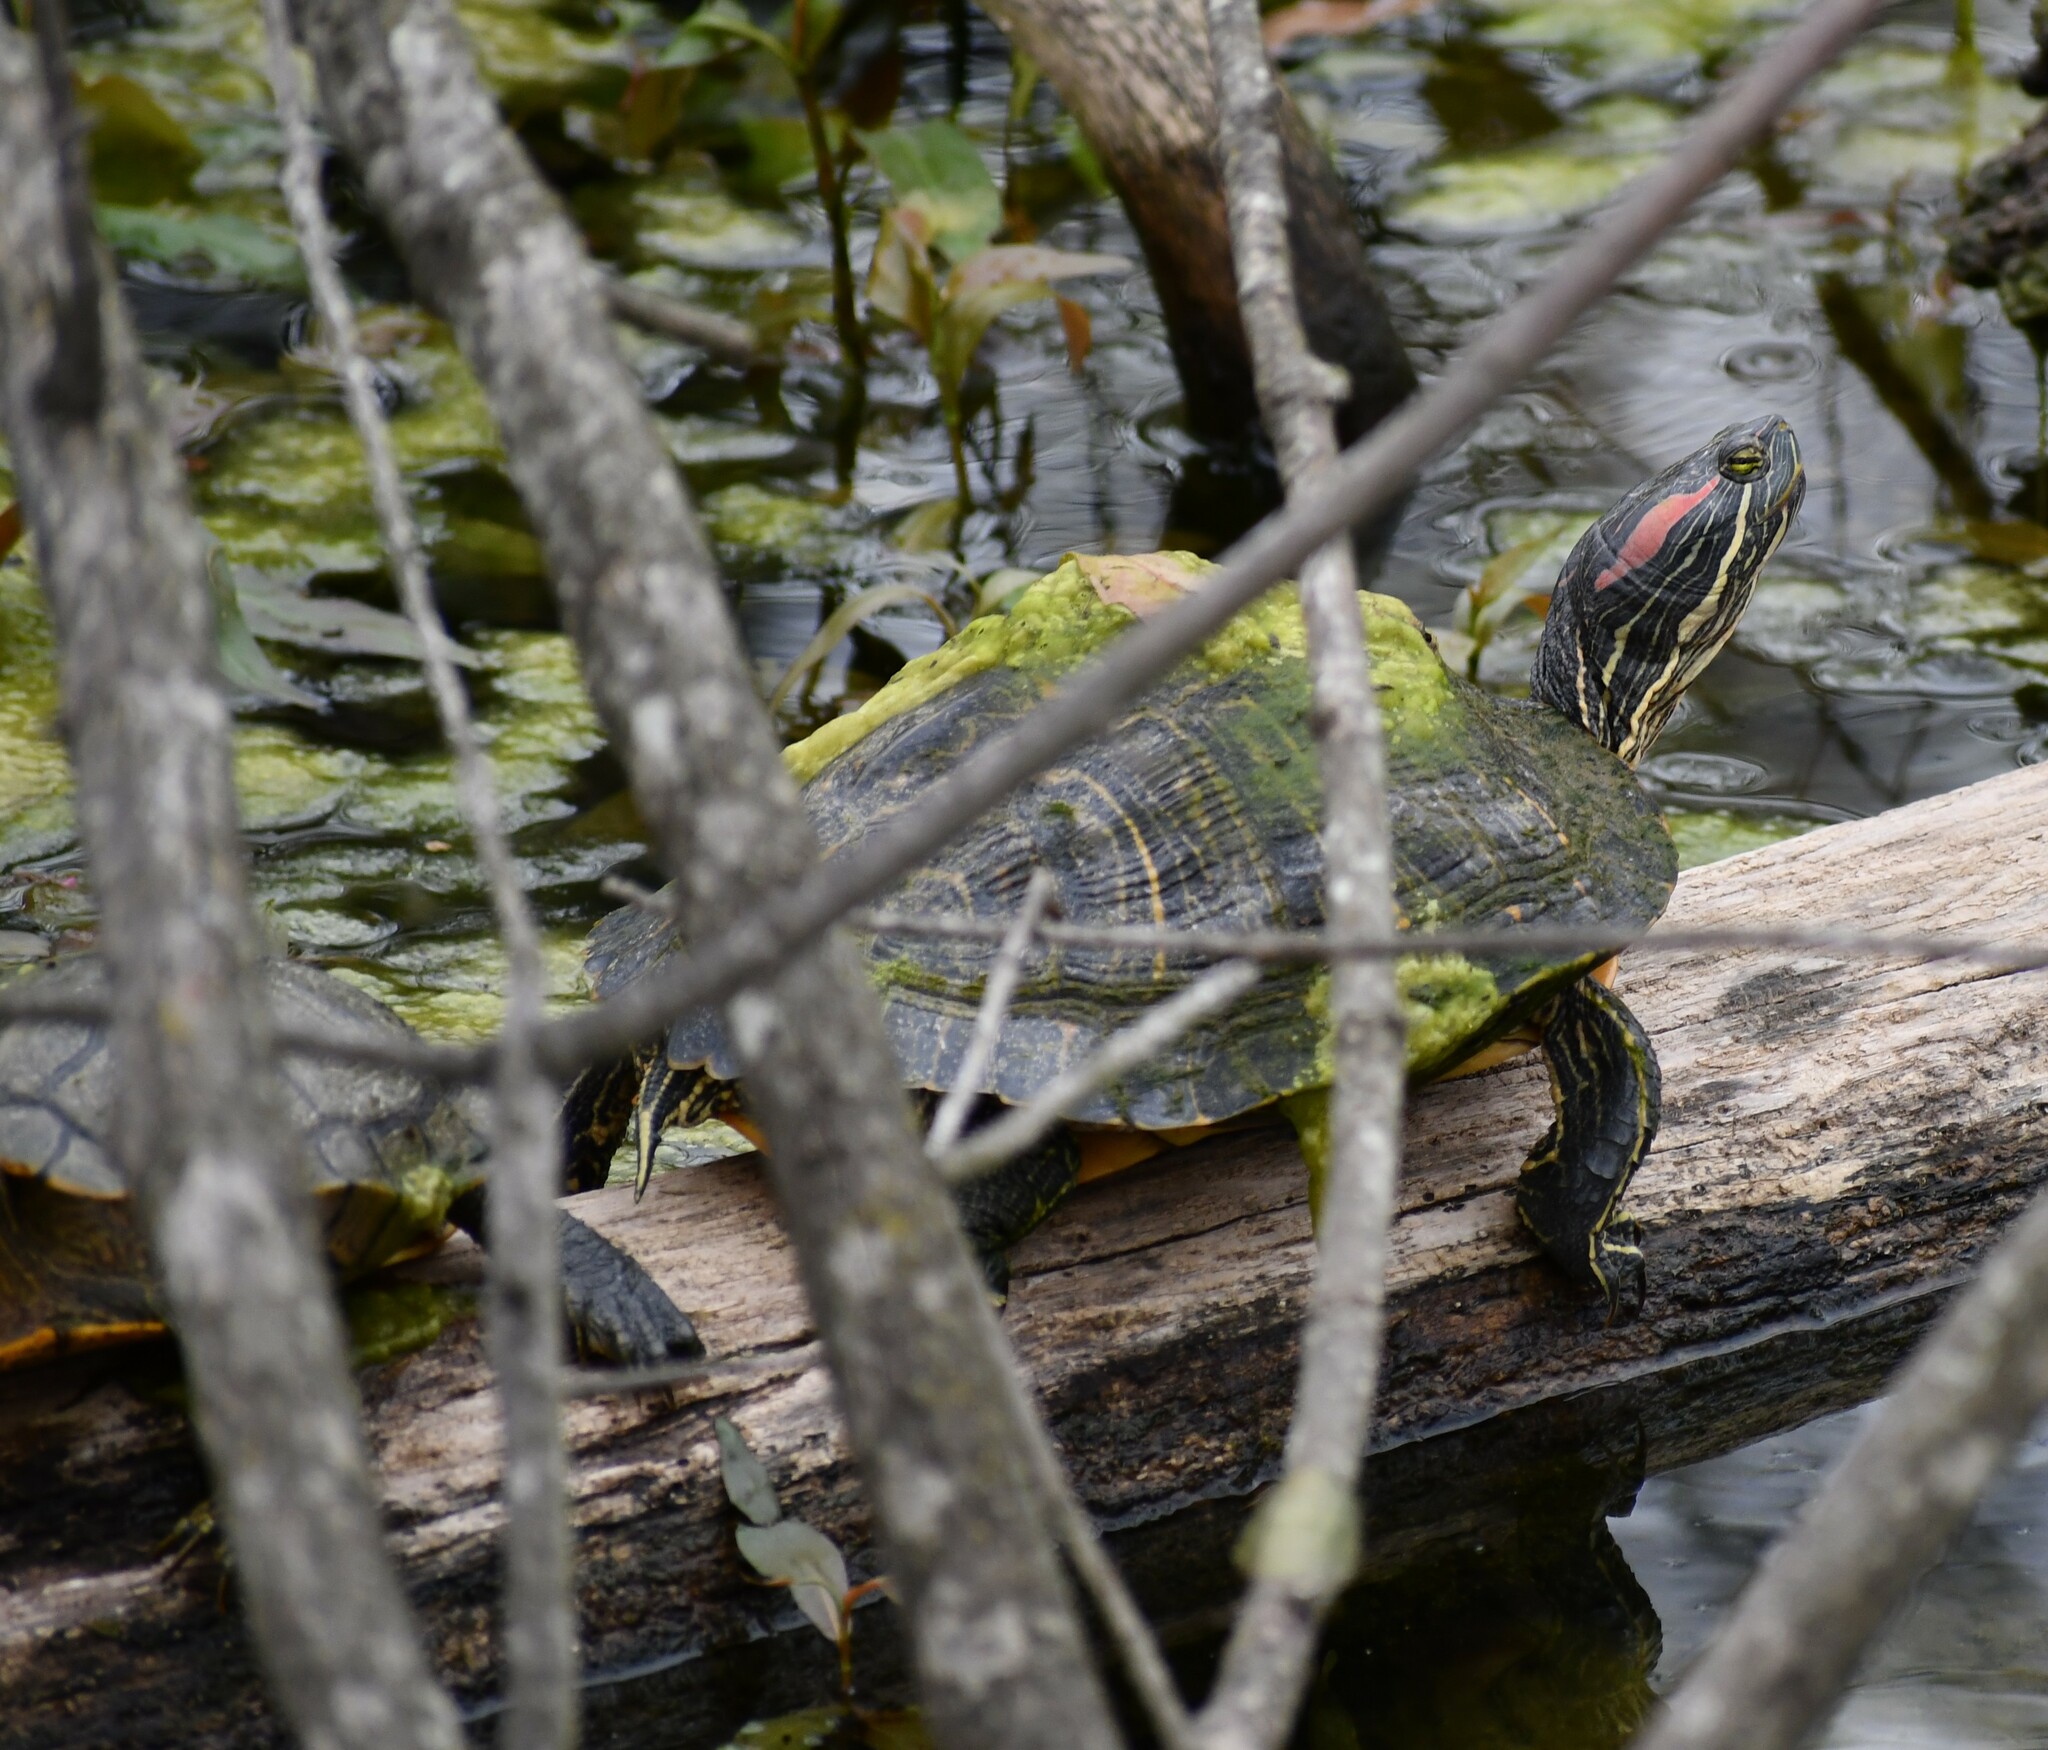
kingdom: Animalia
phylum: Chordata
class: Testudines
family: Emydidae
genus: Trachemys
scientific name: Trachemys scripta
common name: Slider
